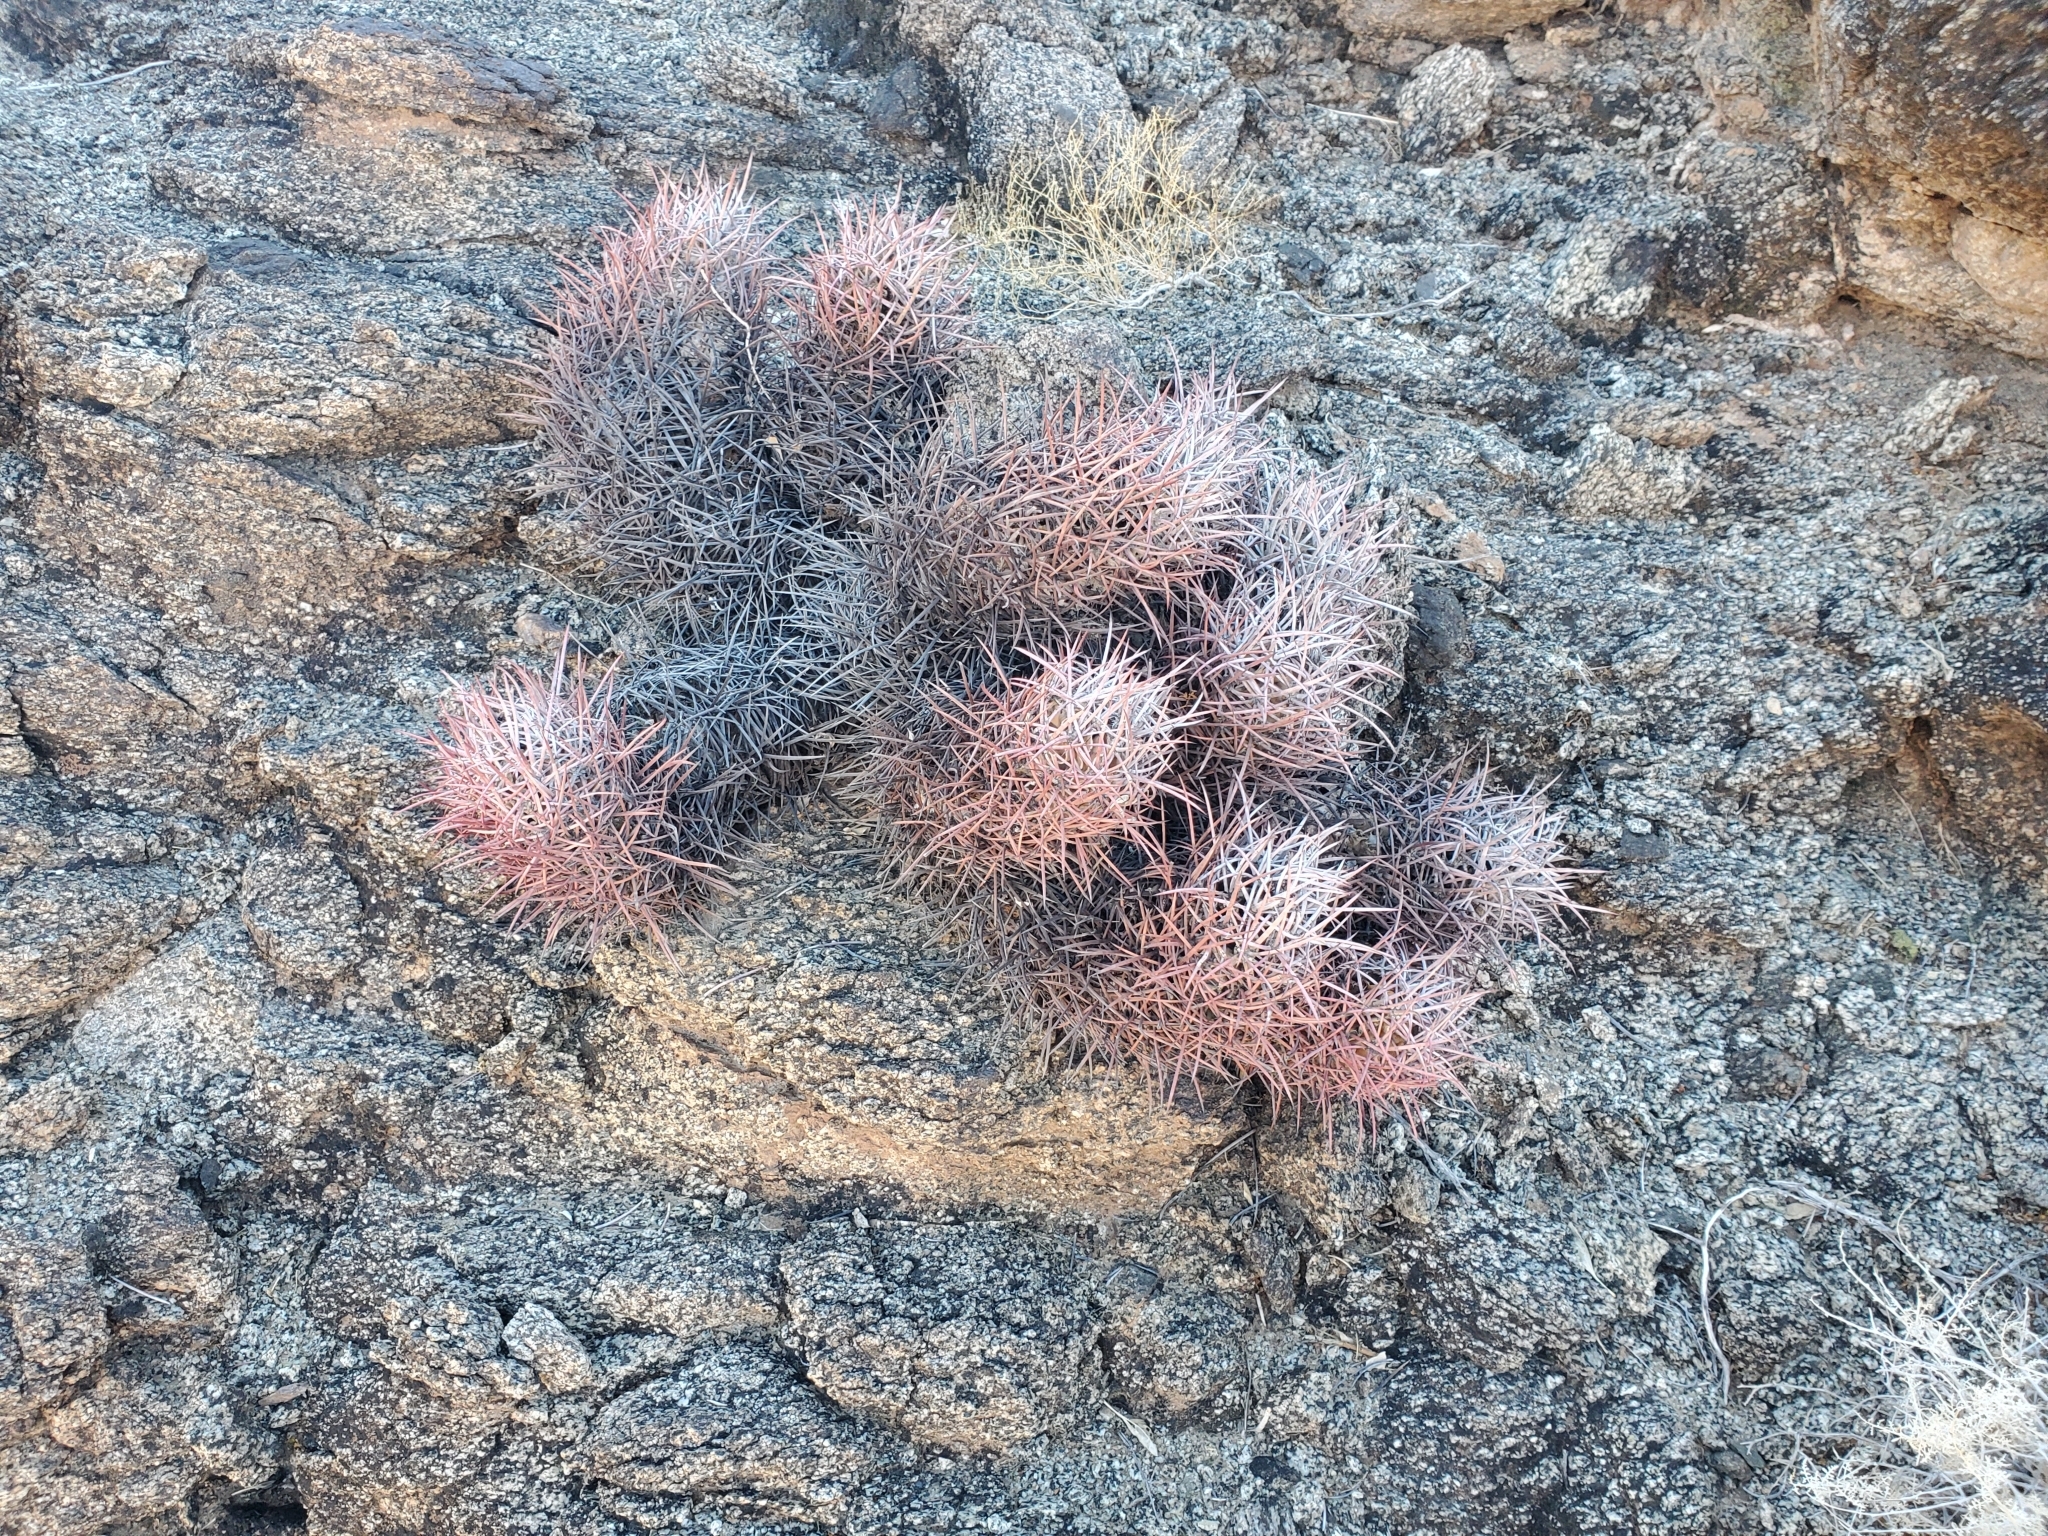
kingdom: Plantae
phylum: Tracheophyta
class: Magnoliopsida
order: Caryophyllales
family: Cactaceae
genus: Echinocactus
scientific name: Echinocactus polycephalus
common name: Cottontop cactus
